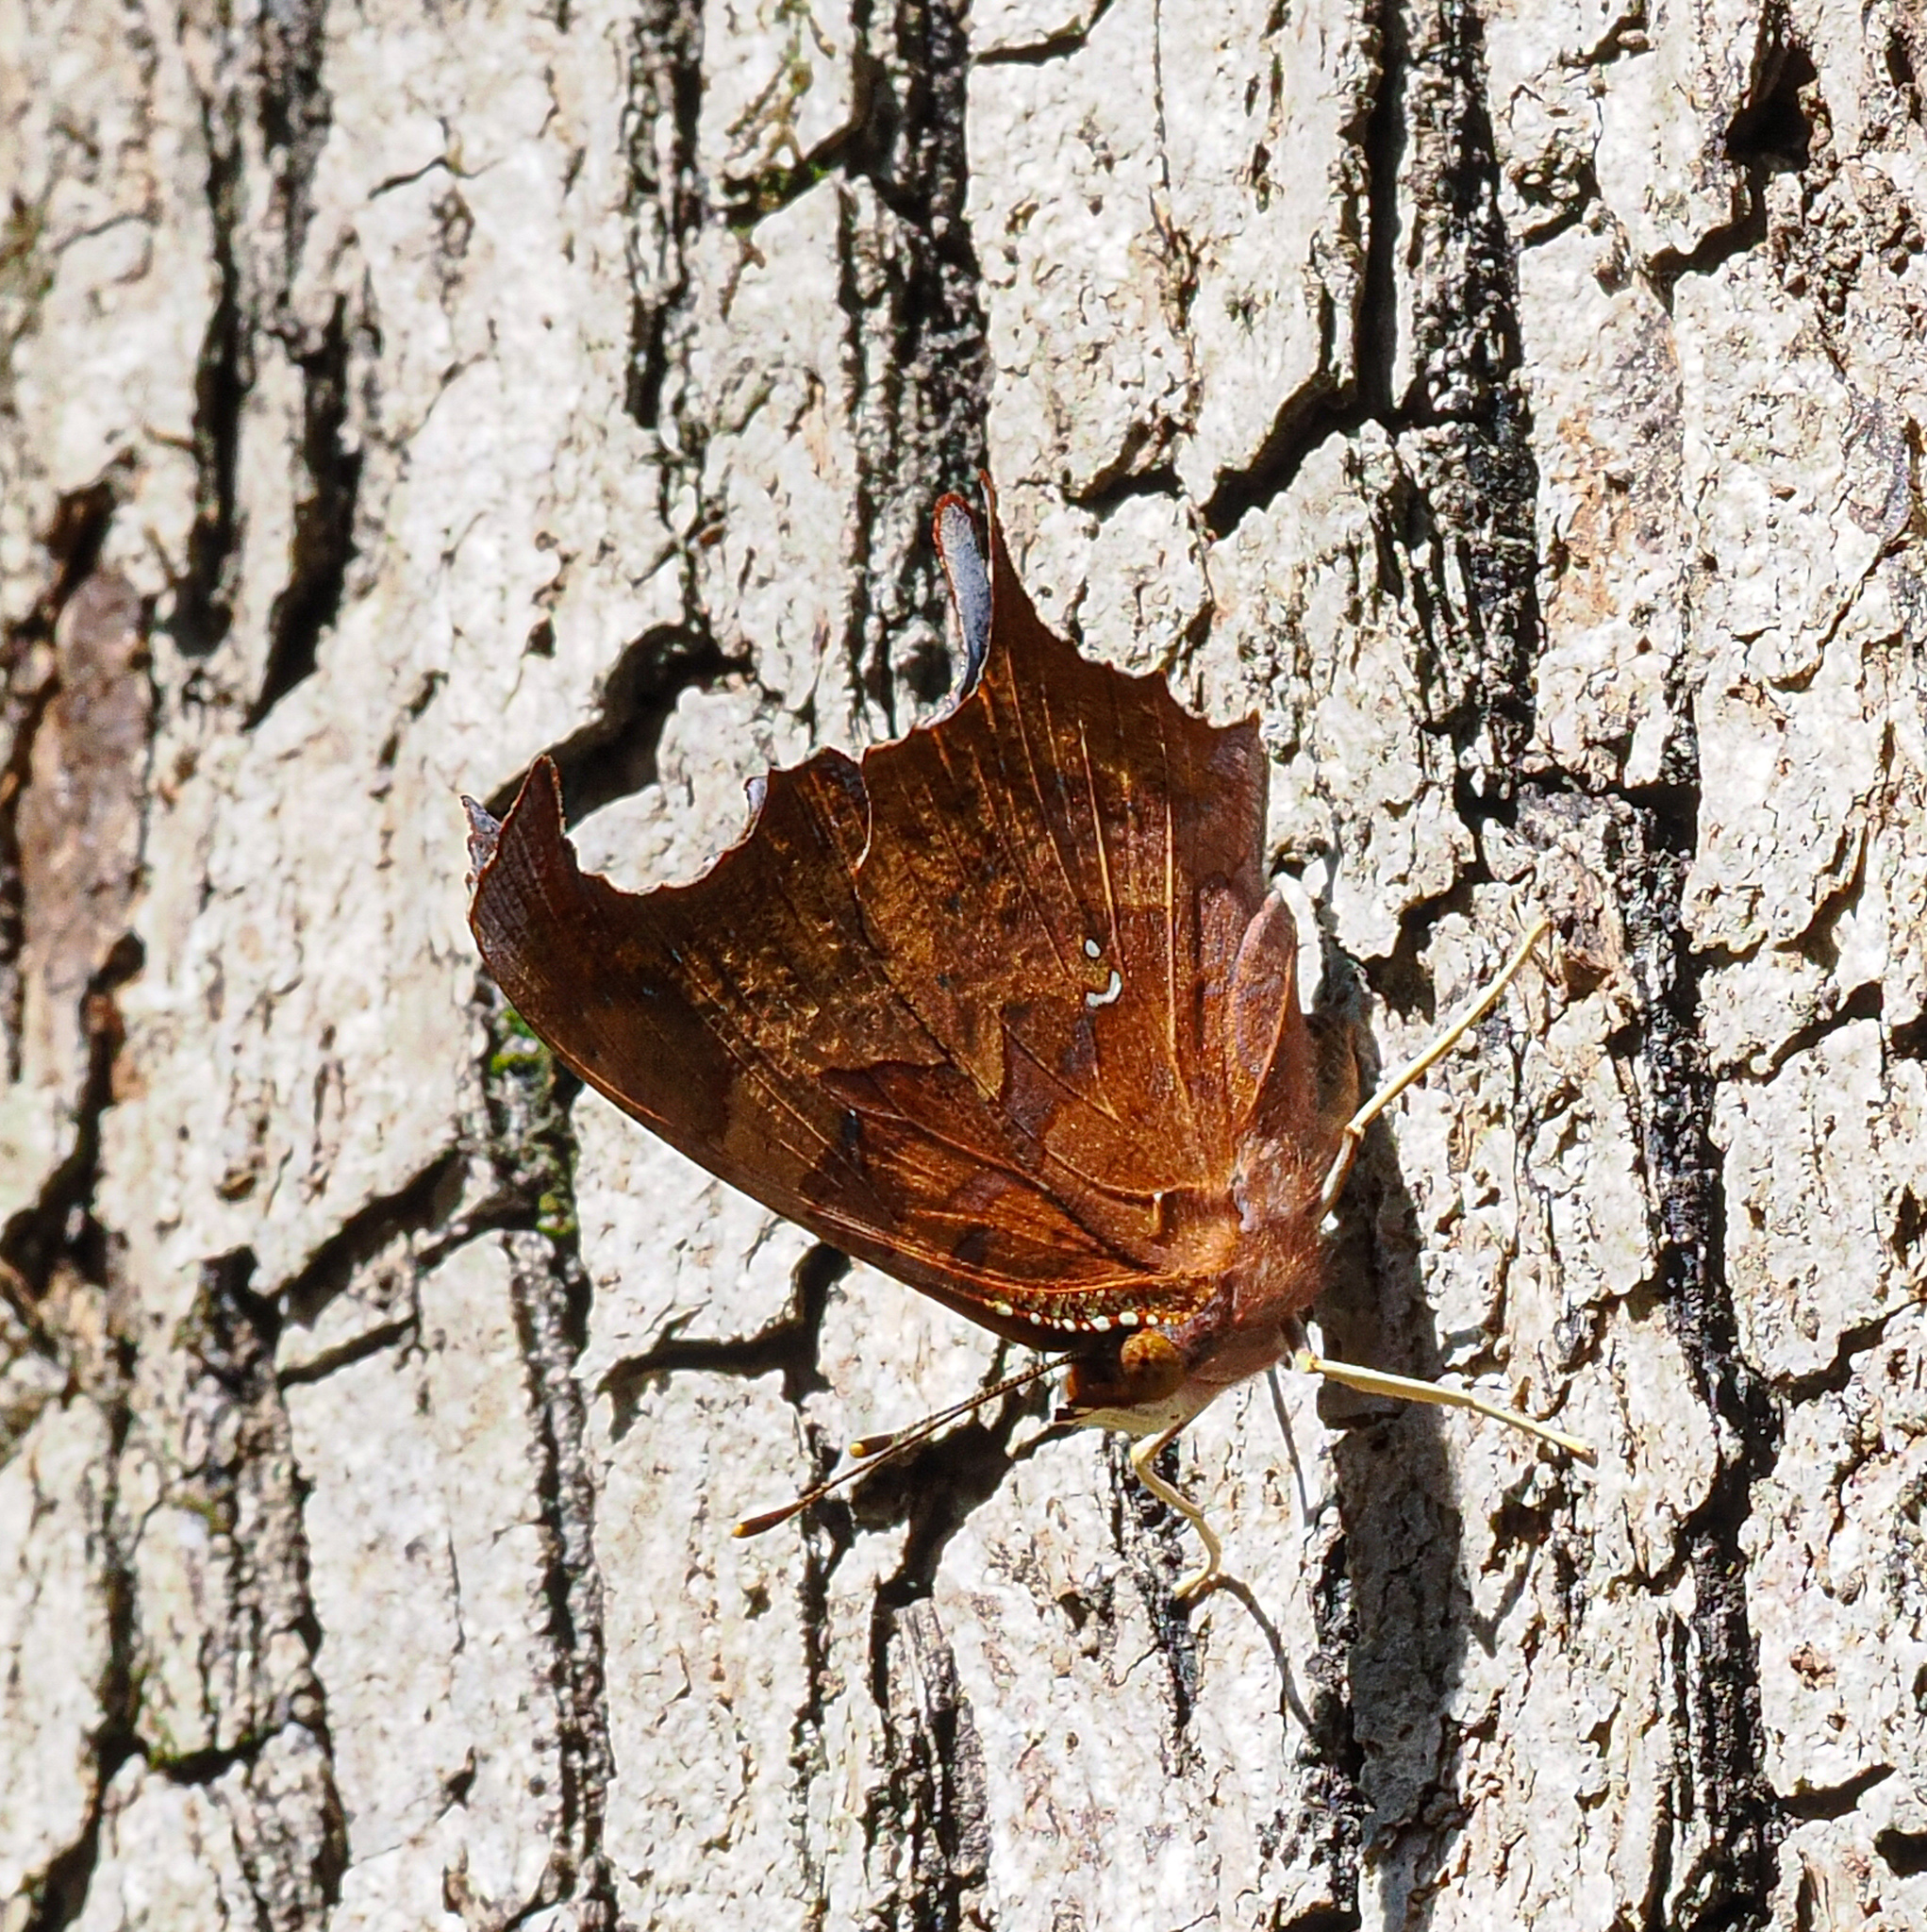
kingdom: Animalia
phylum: Arthropoda
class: Insecta
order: Lepidoptera
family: Nymphalidae
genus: Polygonia
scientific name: Polygonia interrogationis
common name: Question mark
